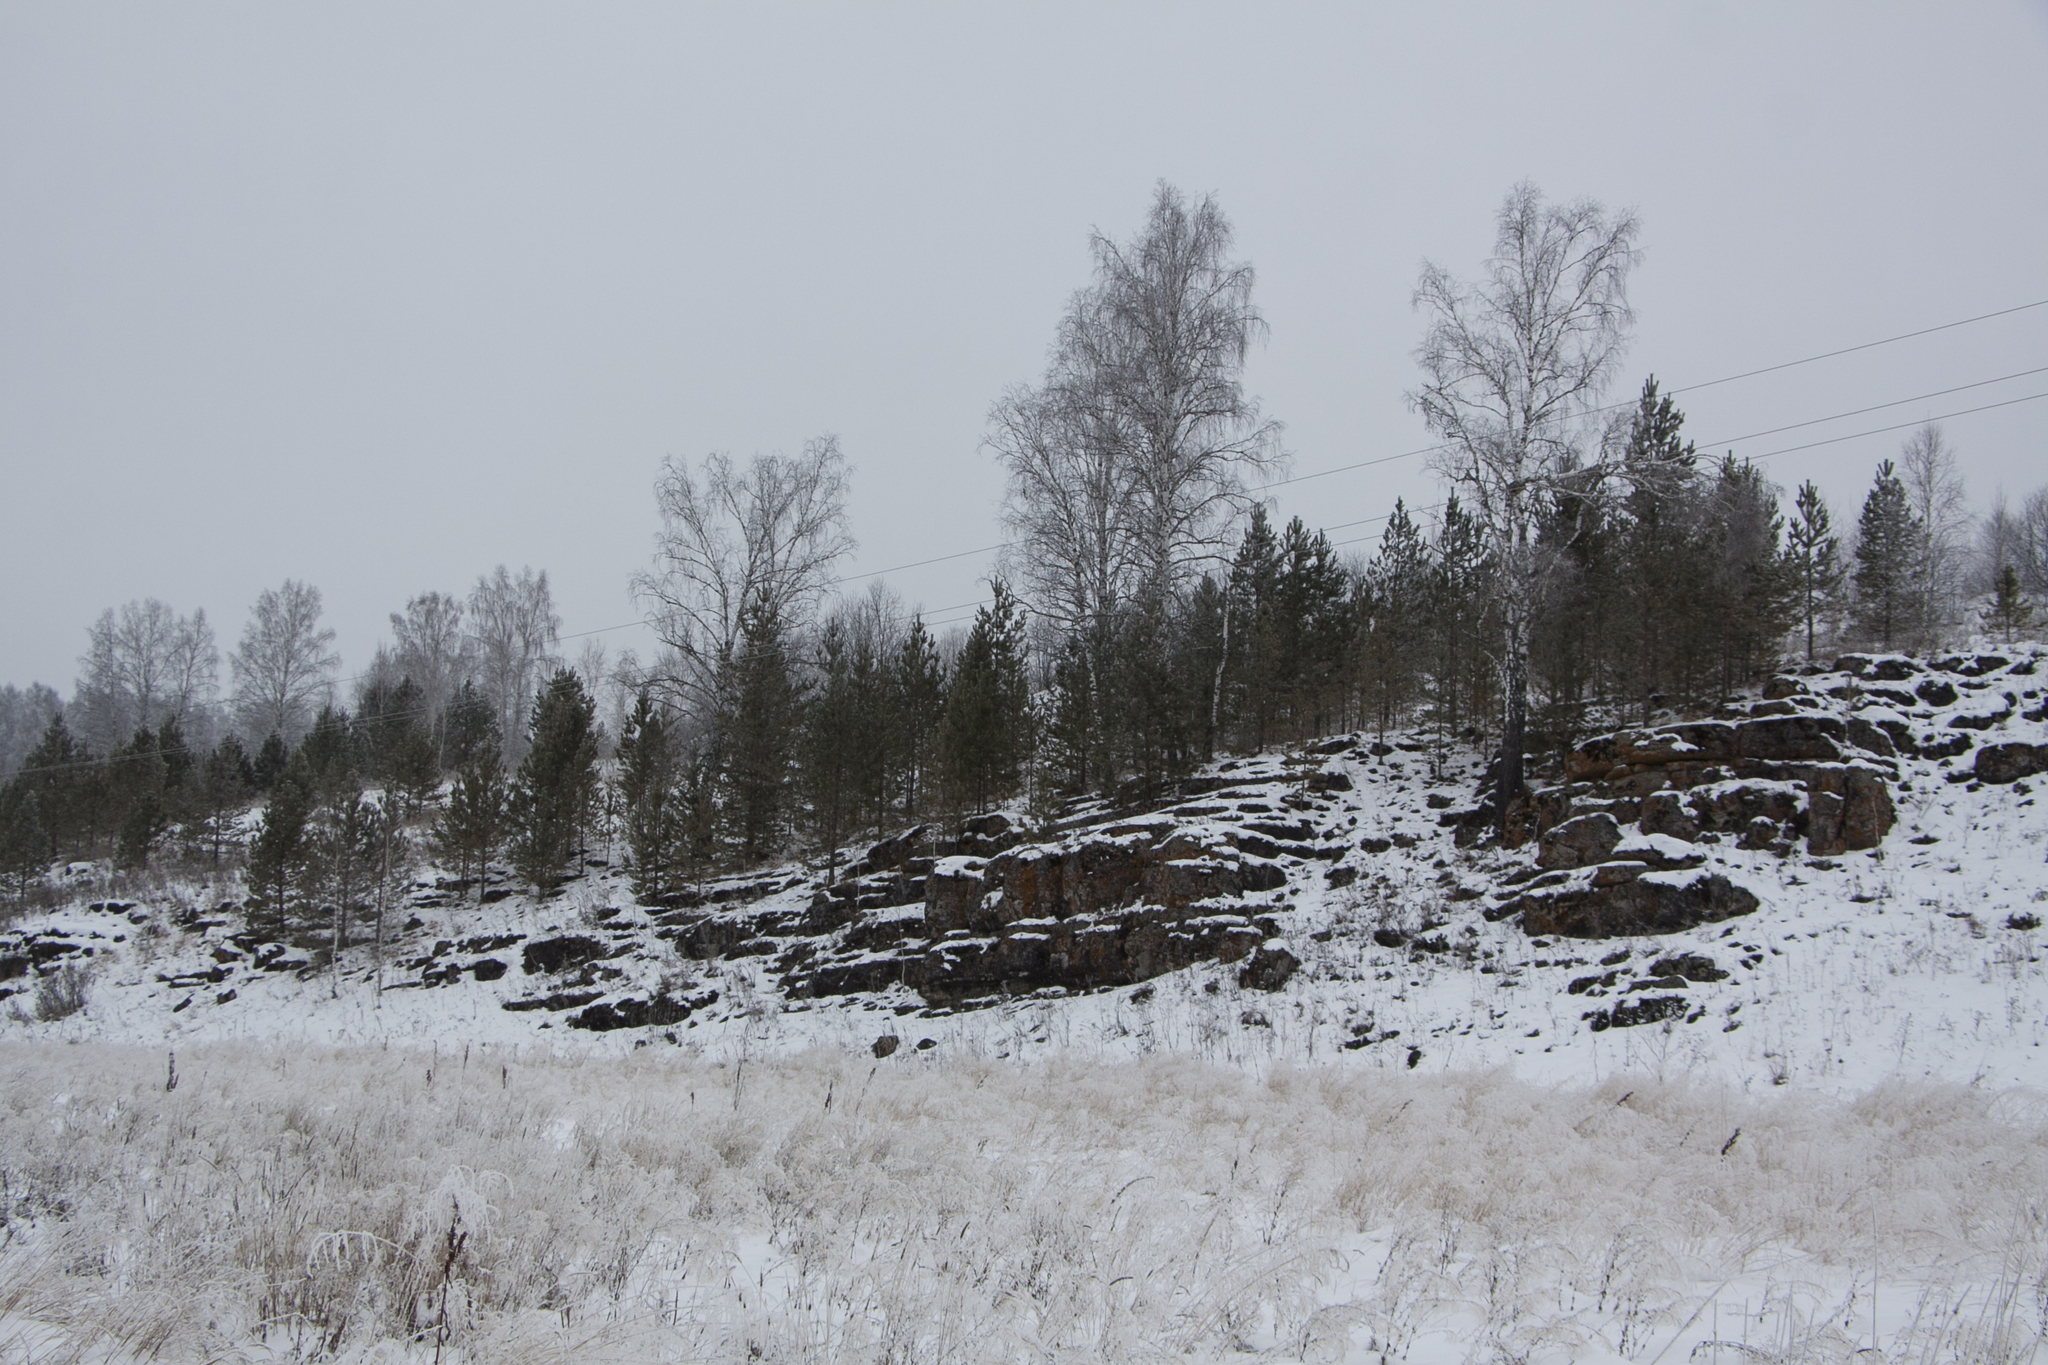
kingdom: Plantae
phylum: Tracheophyta
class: Magnoliopsida
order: Fagales
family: Betulaceae
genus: Betula
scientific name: Betula pendula
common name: Silver birch
